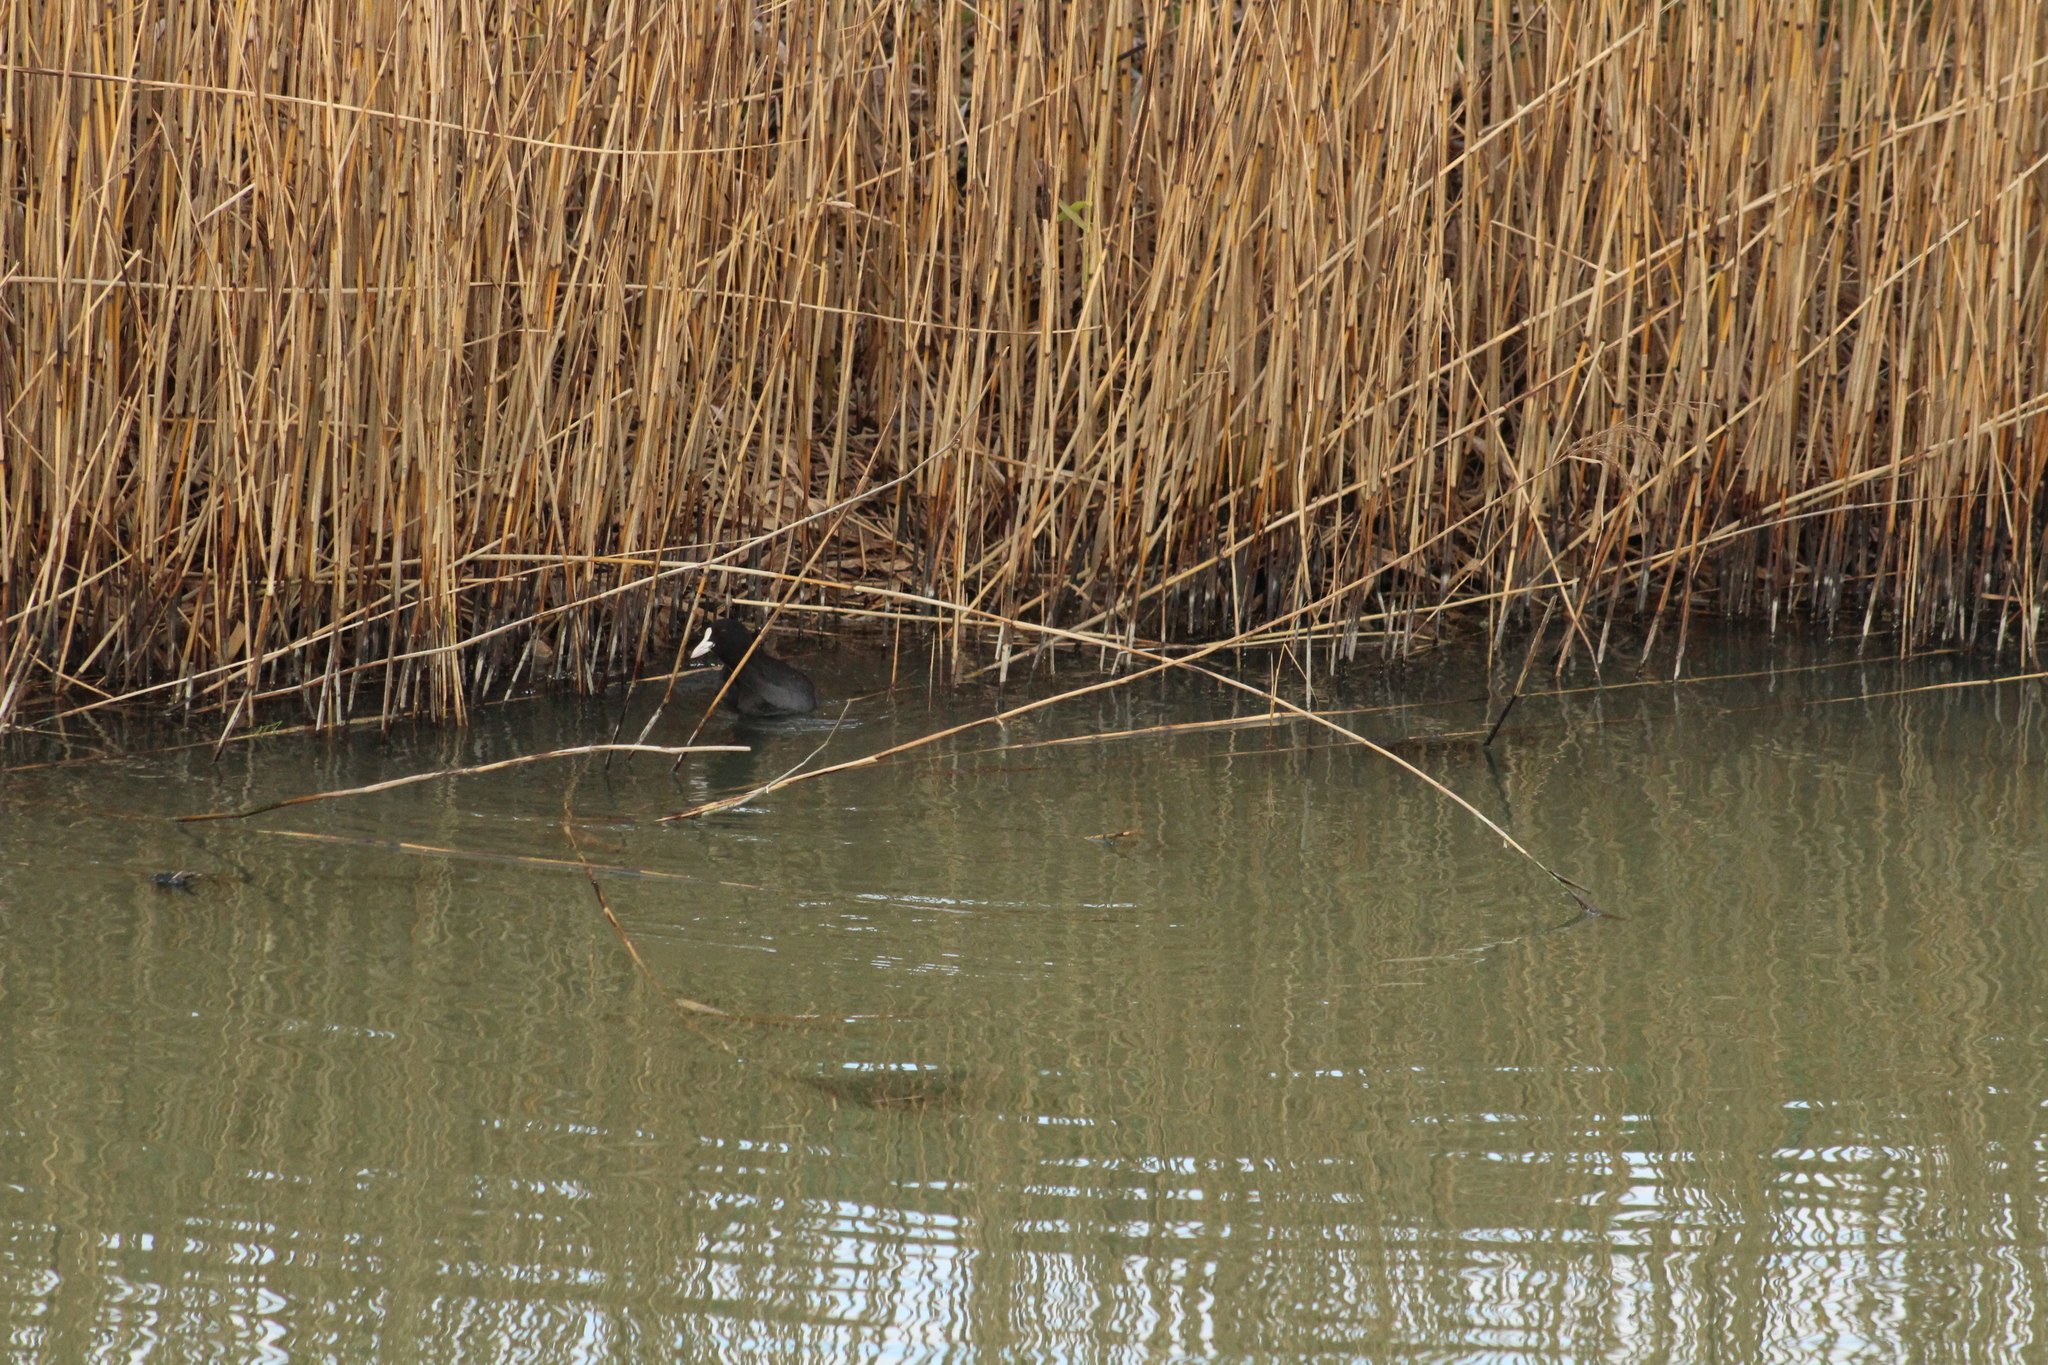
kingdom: Animalia
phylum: Chordata
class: Aves
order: Gruiformes
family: Rallidae
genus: Fulica
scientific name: Fulica atra
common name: Eurasian coot
